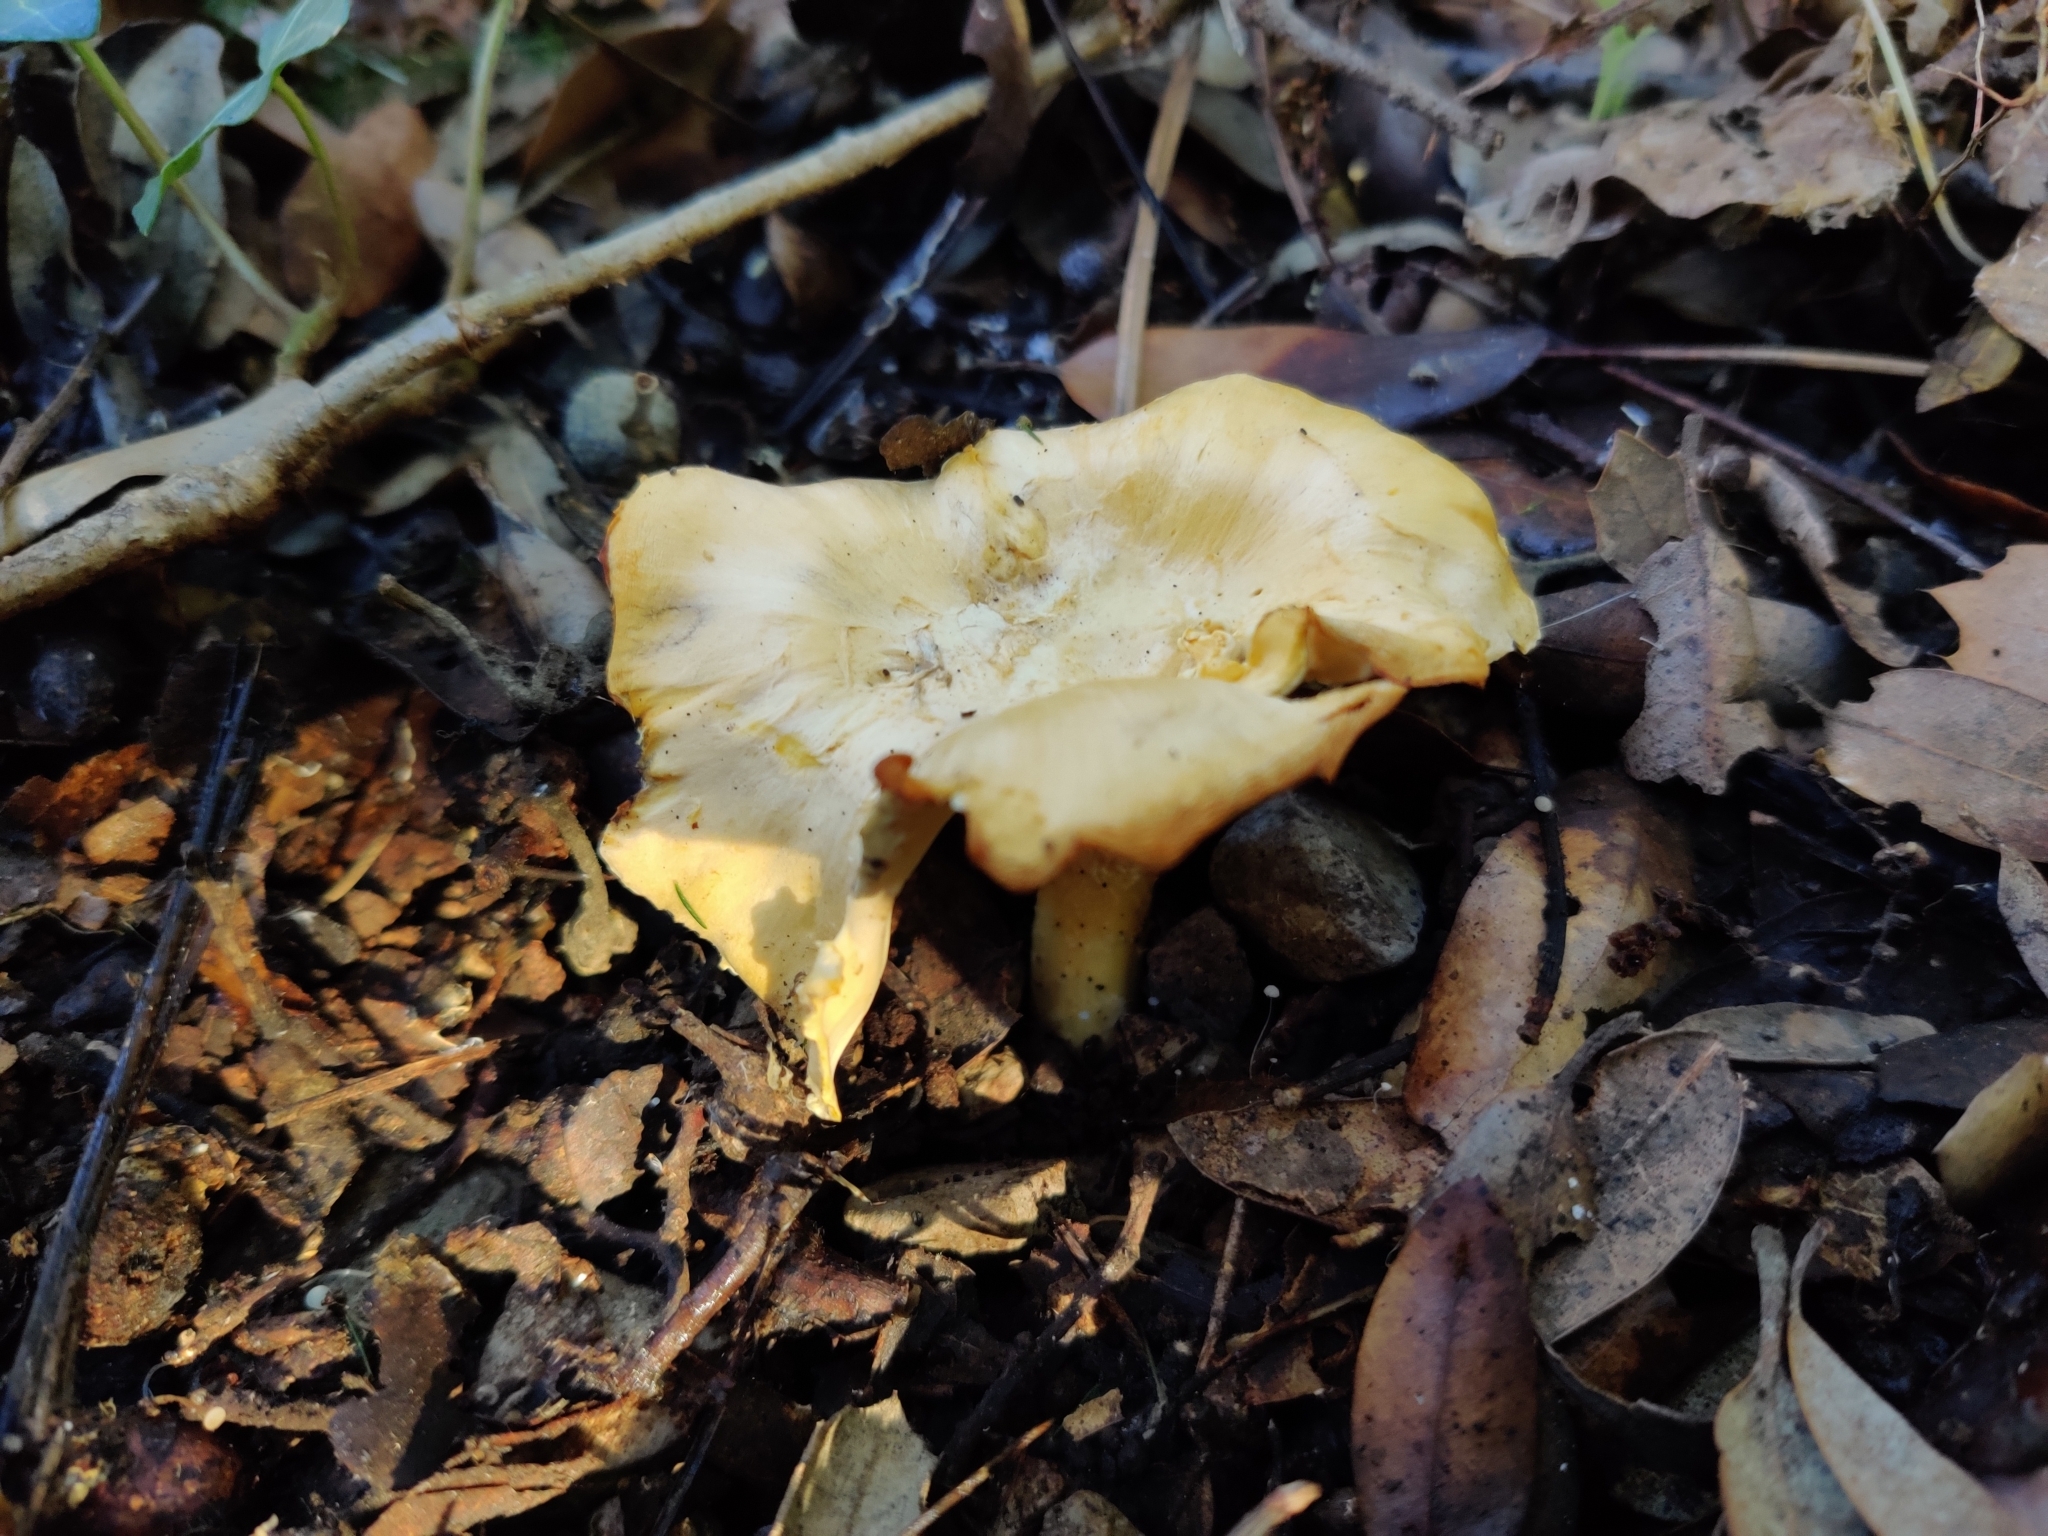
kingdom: Fungi
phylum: Basidiomycota
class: Agaricomycetes
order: Cantharellales
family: Hydnaceae
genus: Cantharellus
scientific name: Cantharellus cibarius
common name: Chanterelle
